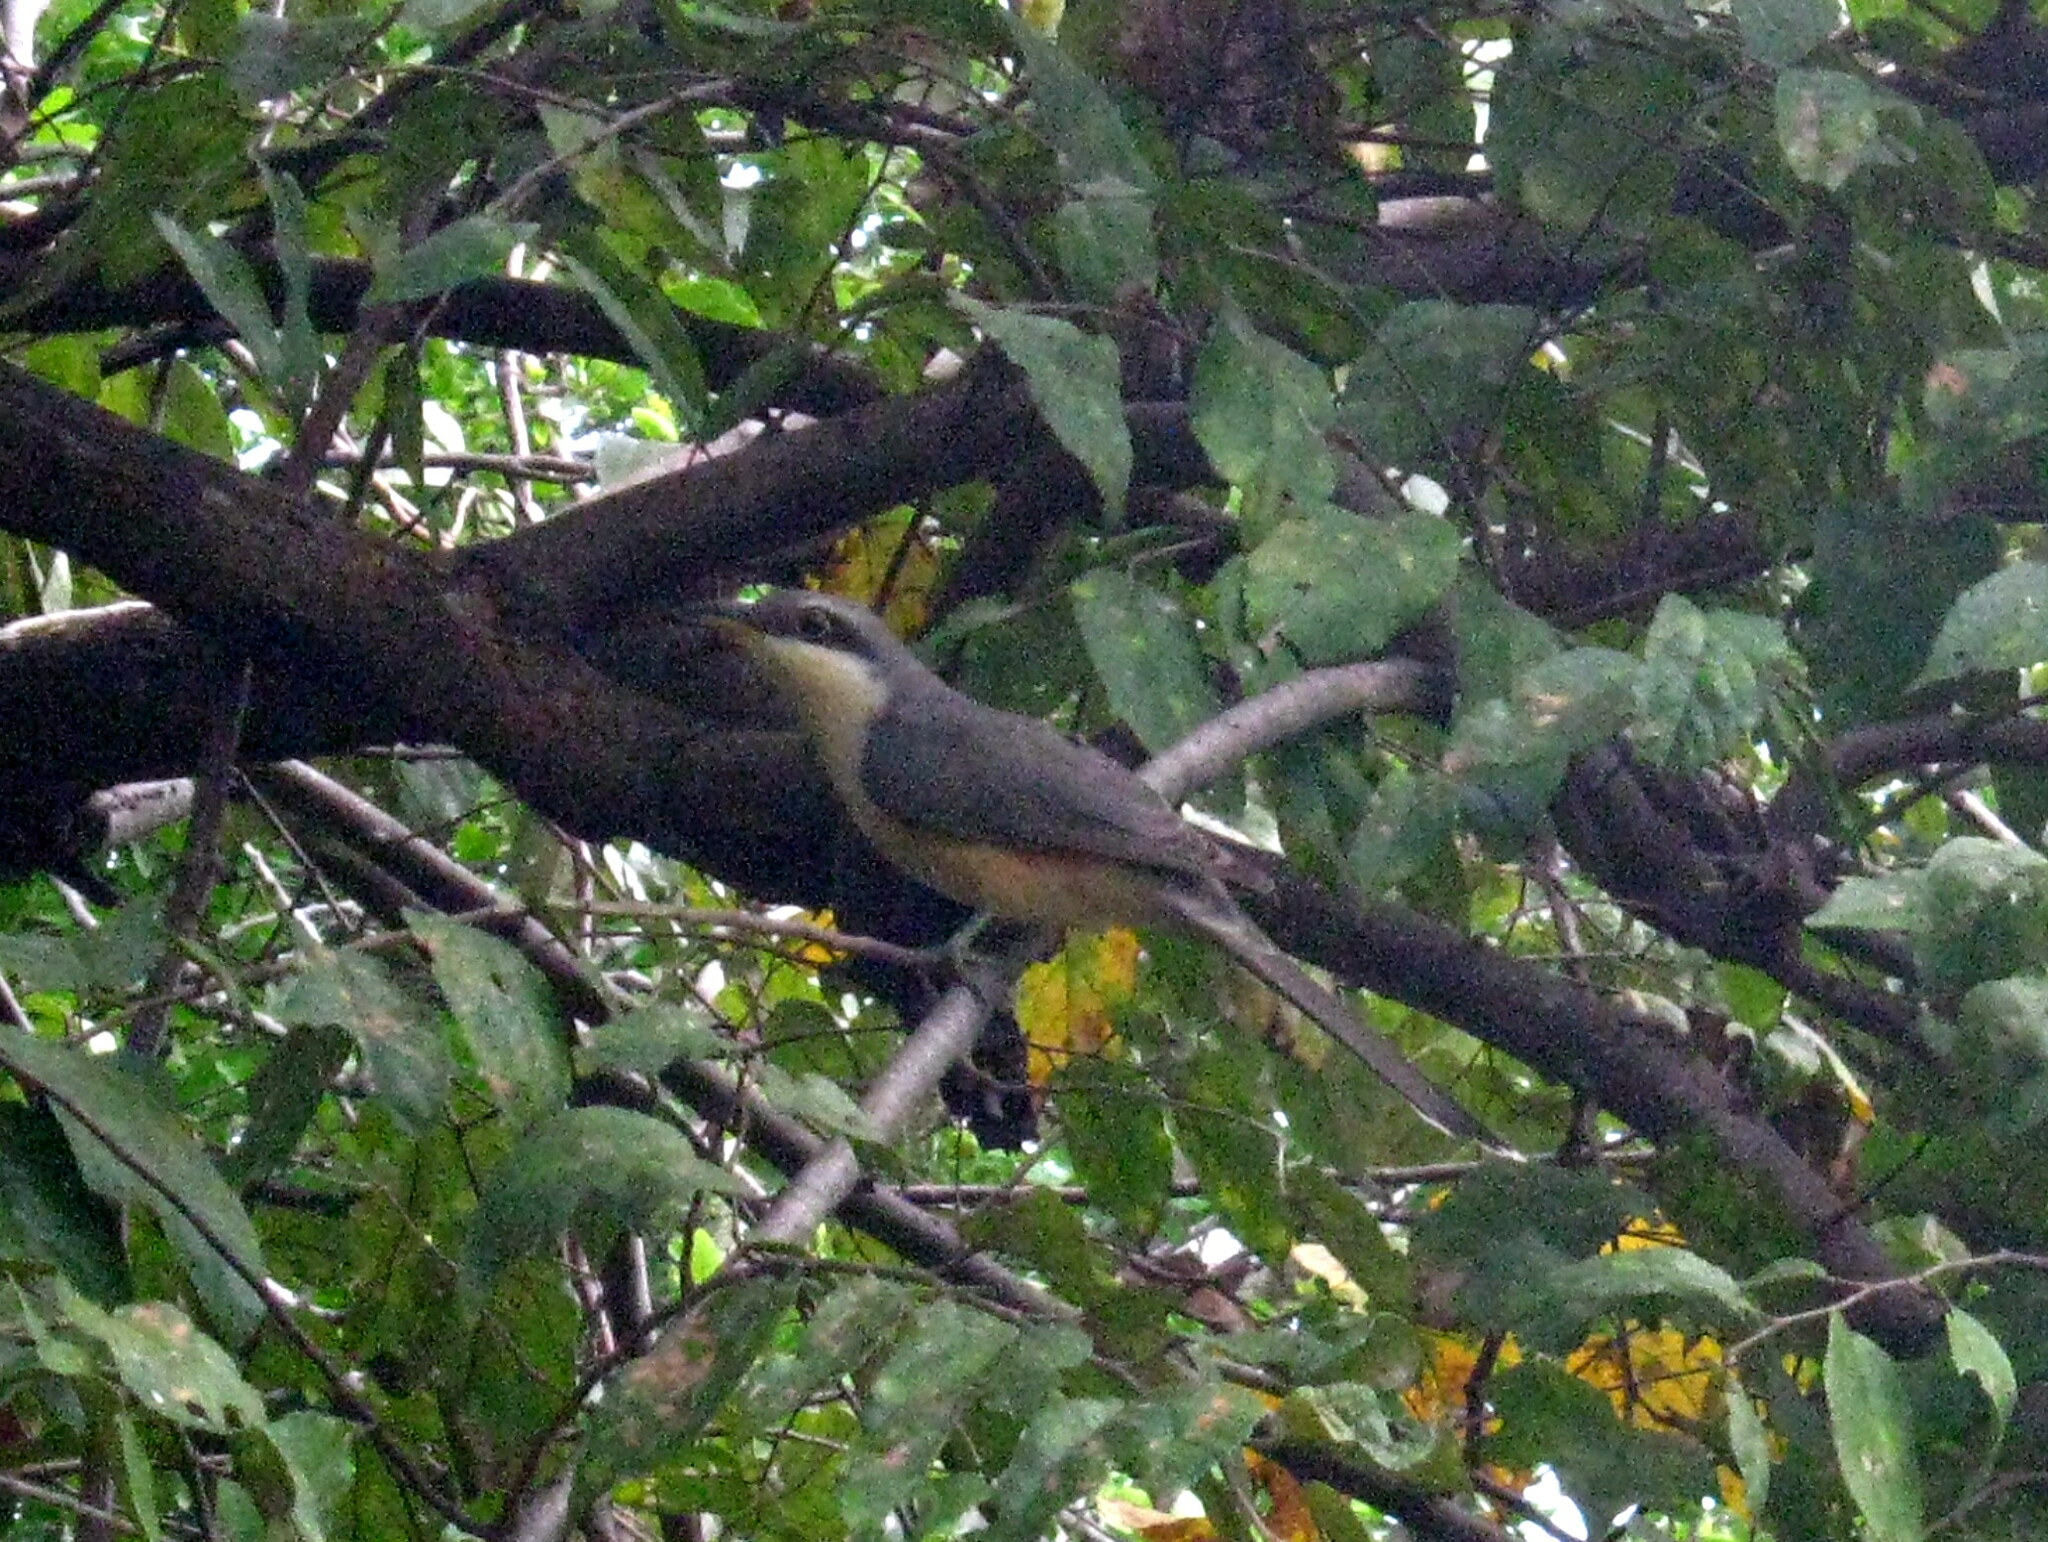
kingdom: Animalia
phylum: Chordata
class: Aves
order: Cuculiformes
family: Cuculidae
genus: Coccyzus
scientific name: Coccyzus minor
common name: Mangrove cuckoo
